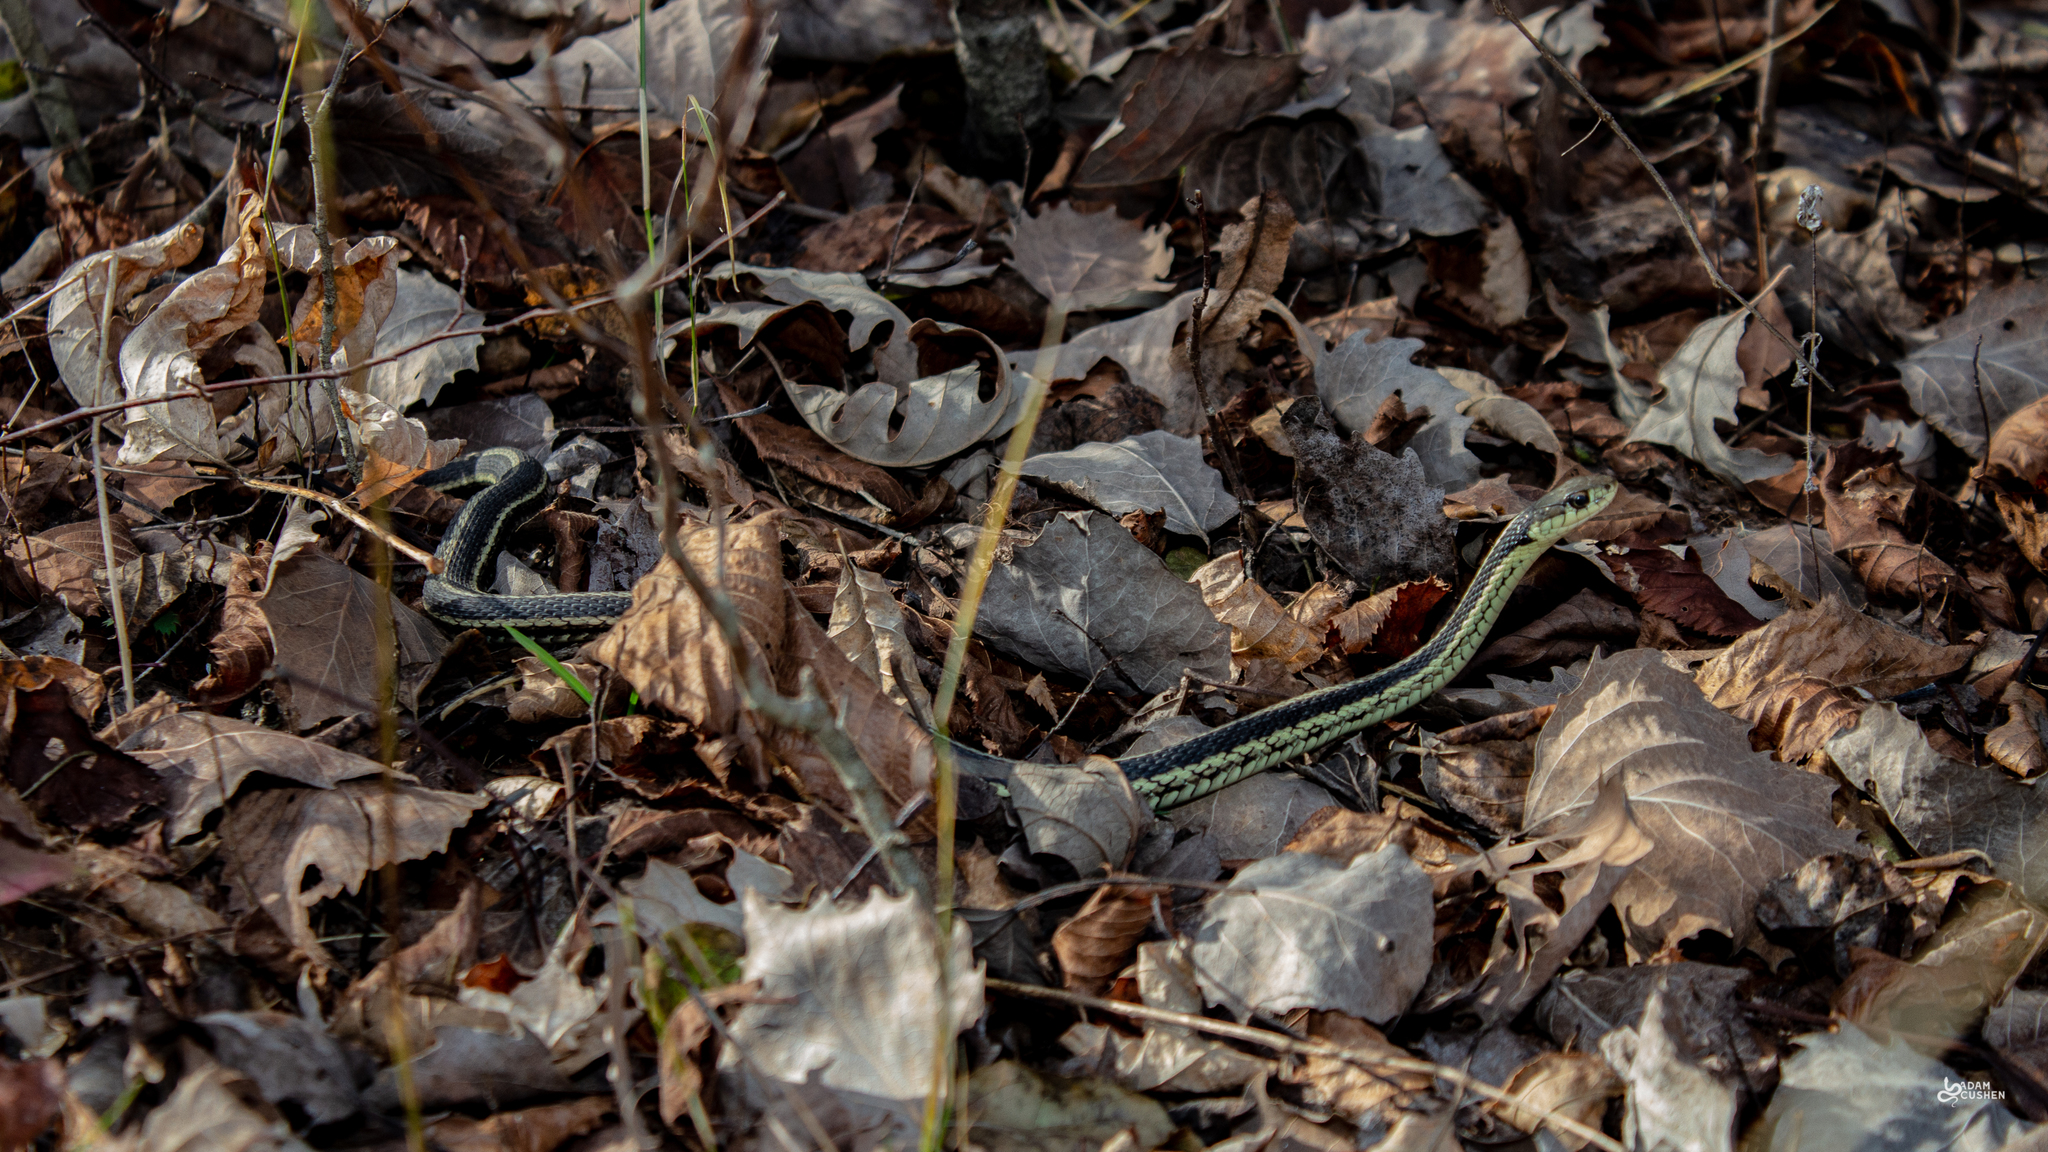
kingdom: Animalia
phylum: Chordata
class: Squamata
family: Colubridae
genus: Thamnophis
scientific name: Thamnophis sirtalis
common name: Common garter snake
